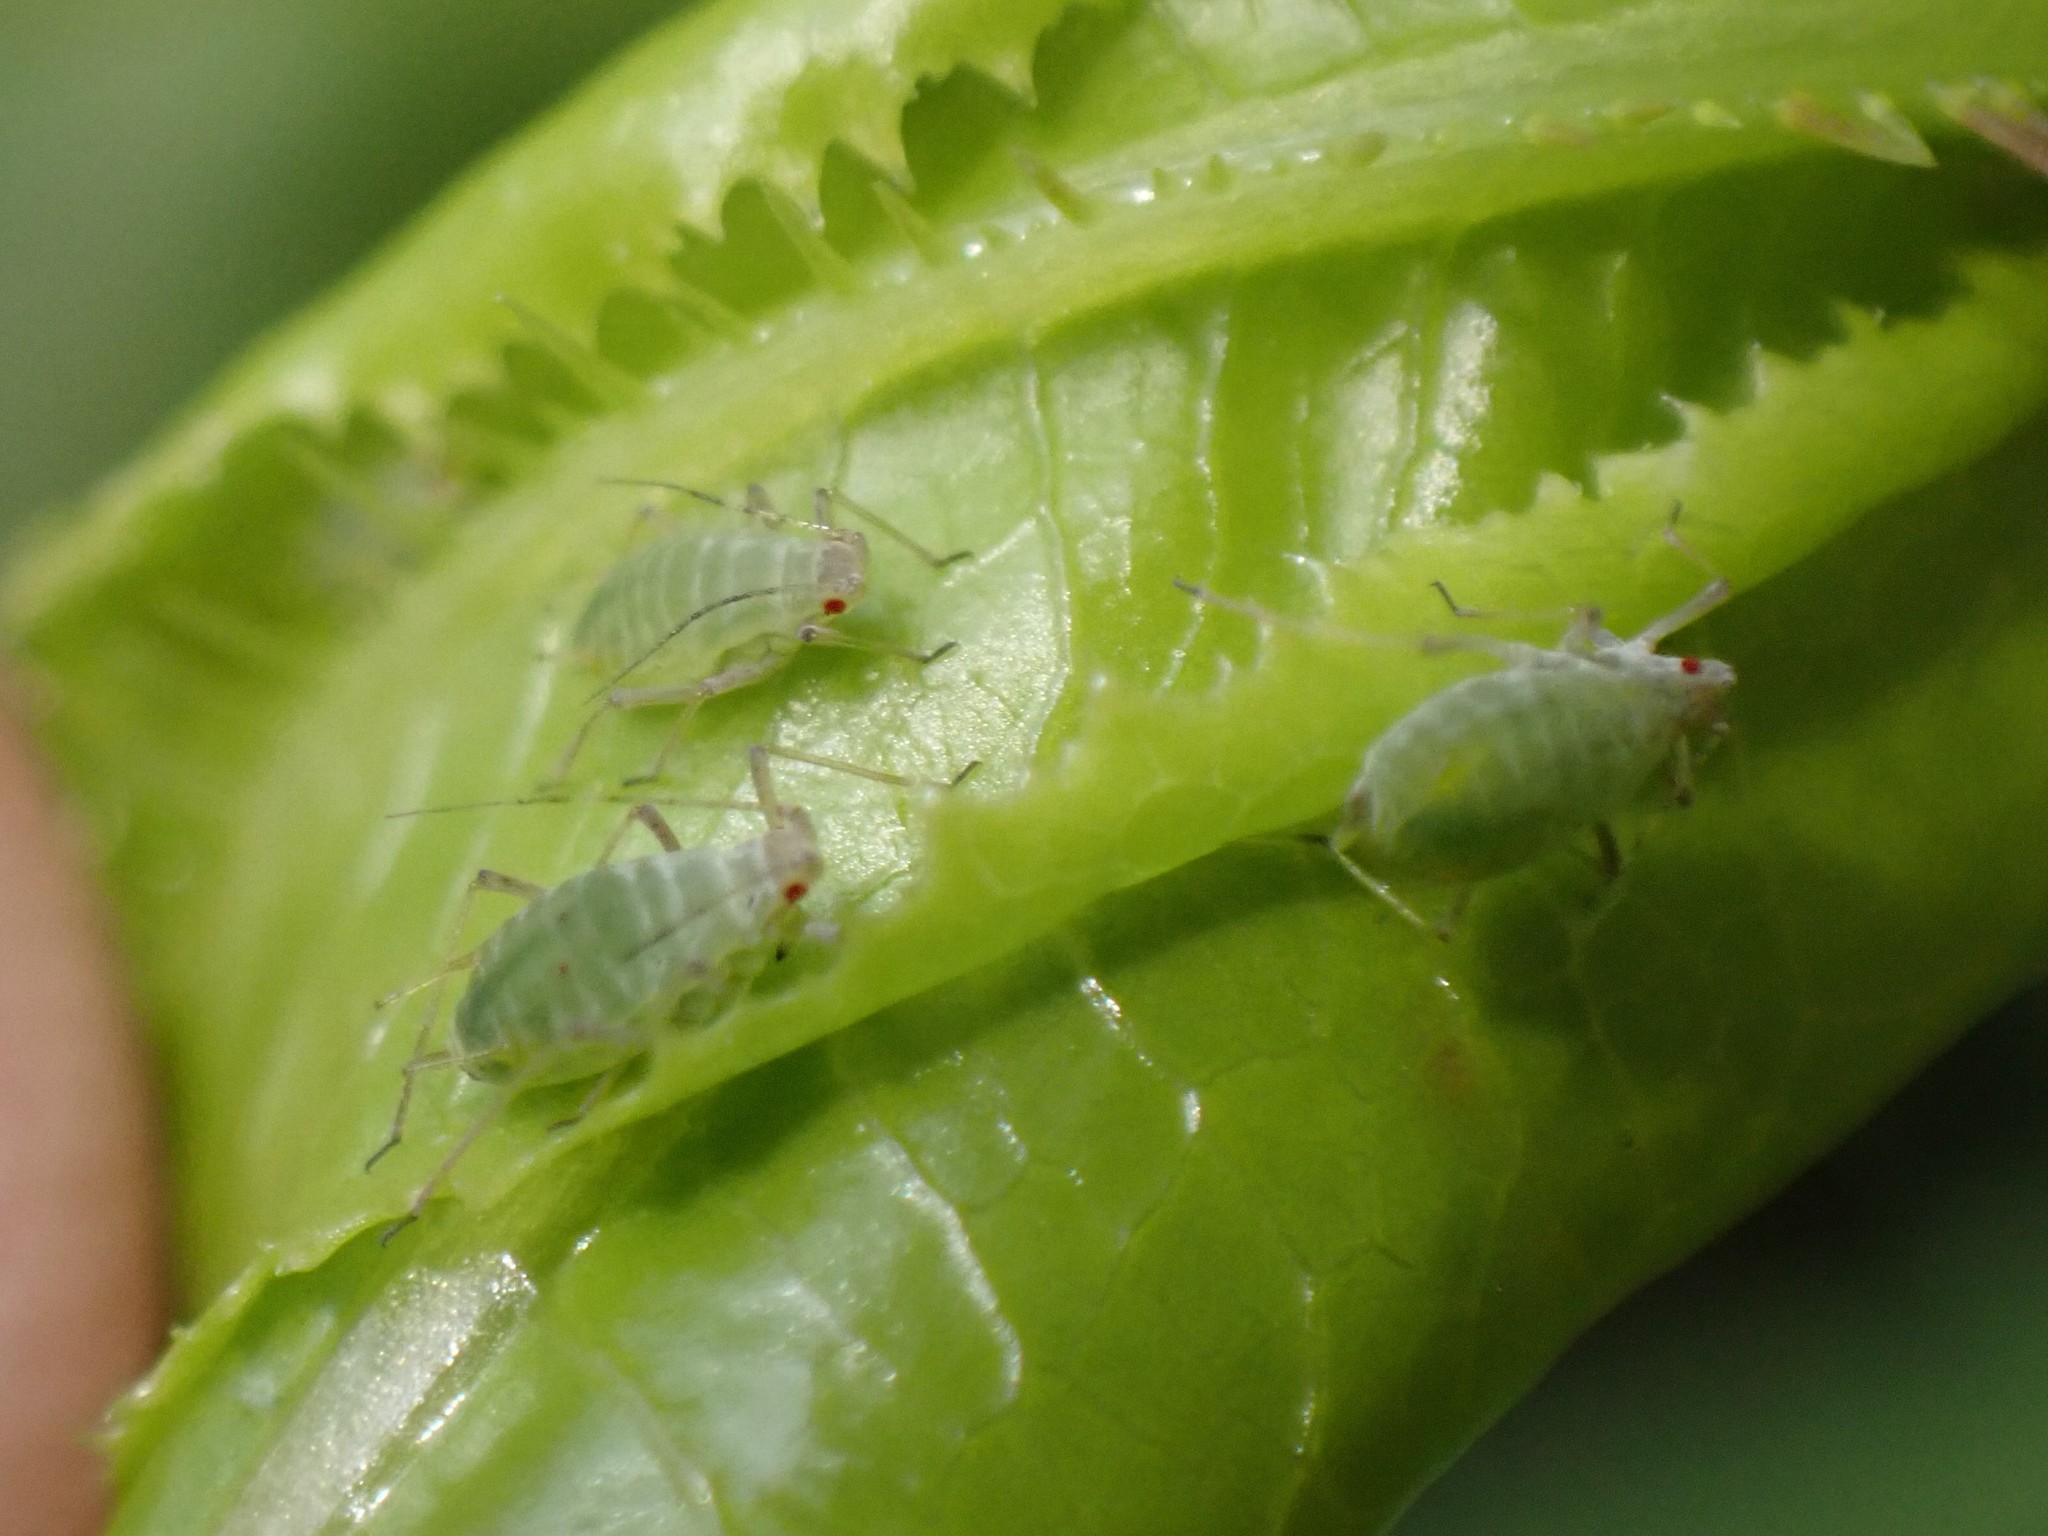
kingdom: Animalia
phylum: Arthropoda
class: Insecta
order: Hemiptera
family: Aphididae
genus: Acyrthosiphon
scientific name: Acyrthosiphon lactucae
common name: Aphid
